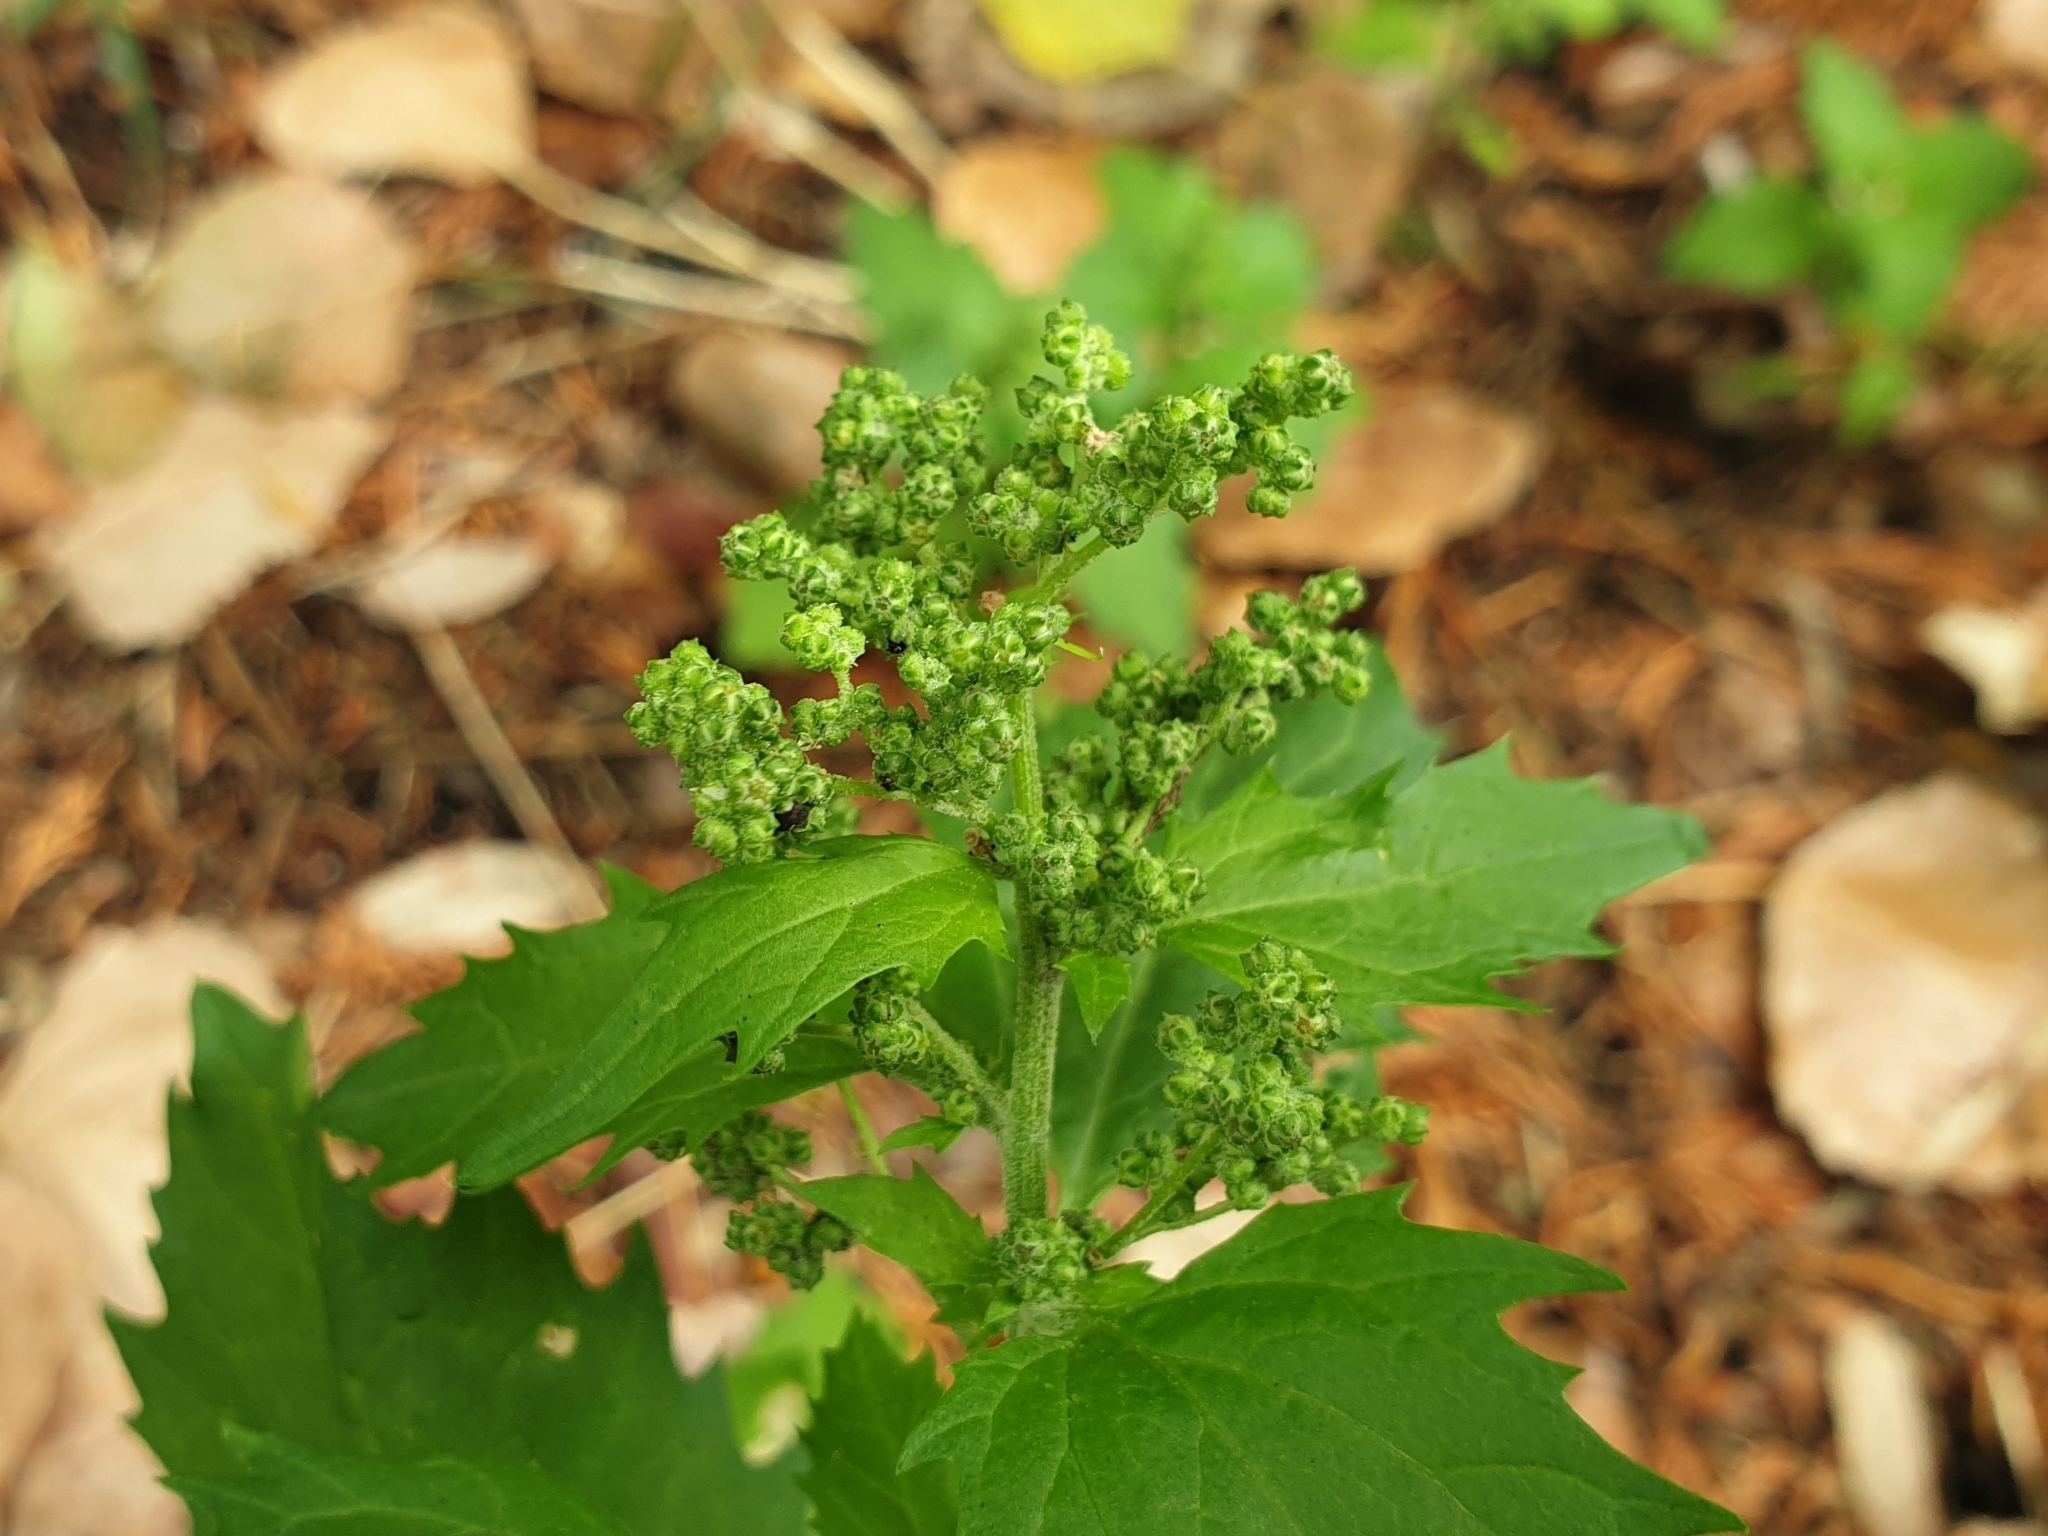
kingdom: Plantae
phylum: Tracheophyta
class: Magnoliopsida
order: Caryophyllales
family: Amaranthaceae
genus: Chenopodiastrum
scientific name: Chenopodiastrum murale
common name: Sowbane
